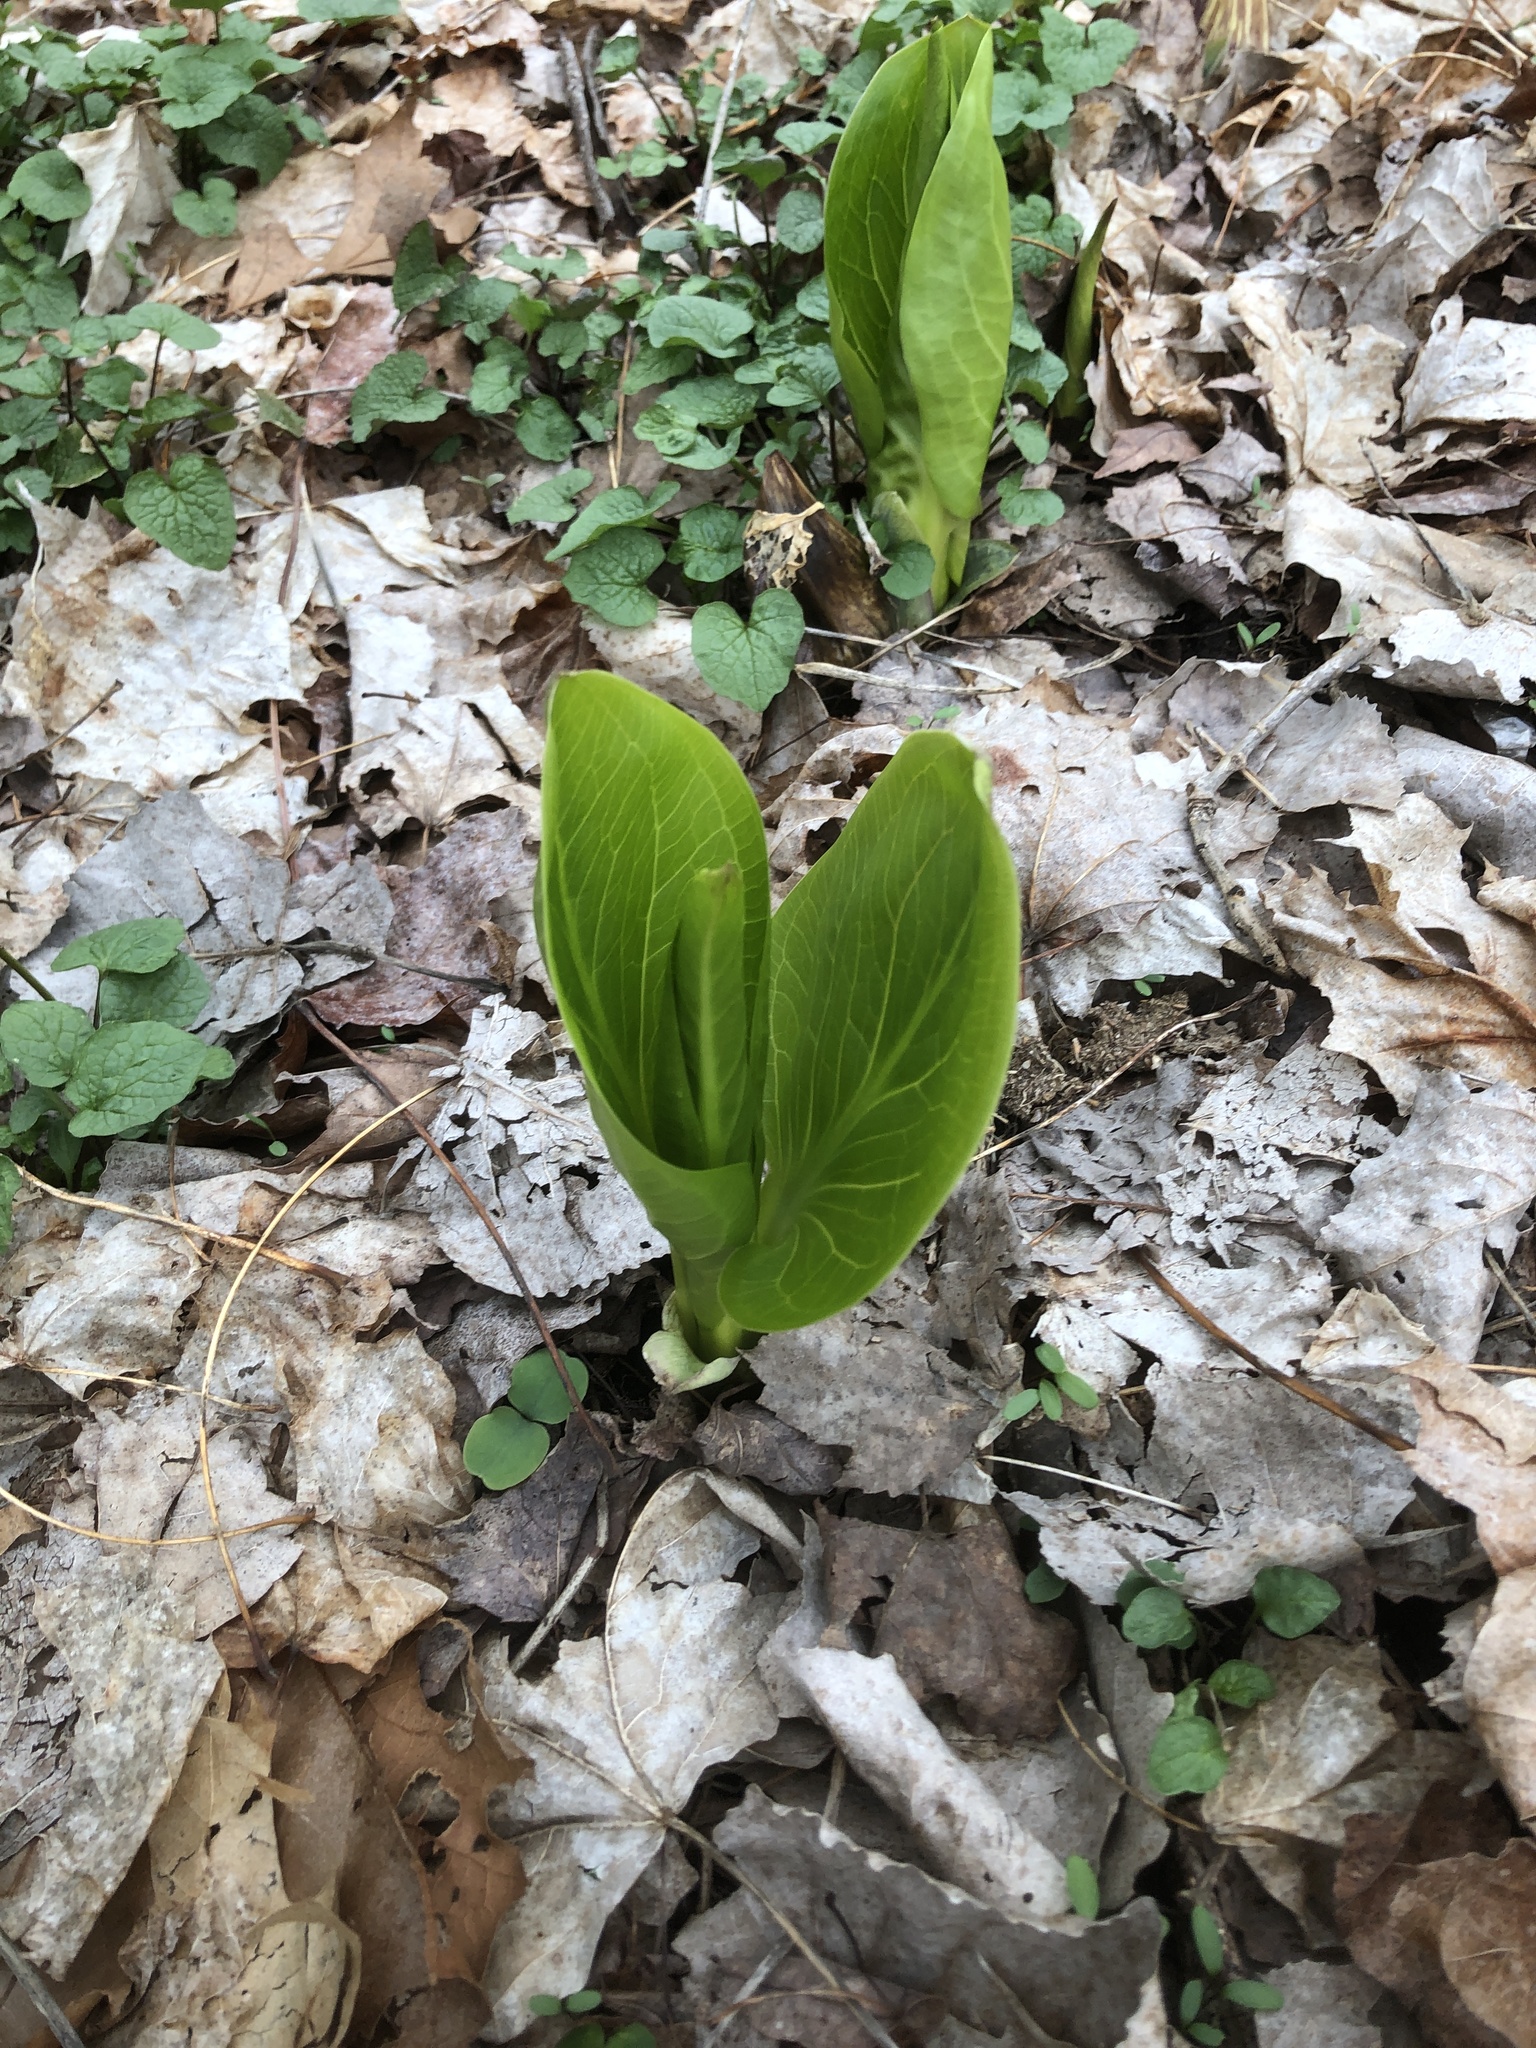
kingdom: Plantae
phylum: Tracheophyta
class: Liliopsida
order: Alismatales
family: Araceae
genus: Symplocarpus
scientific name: Symplocarpus foetidus
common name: Eastern skunk cabbage
